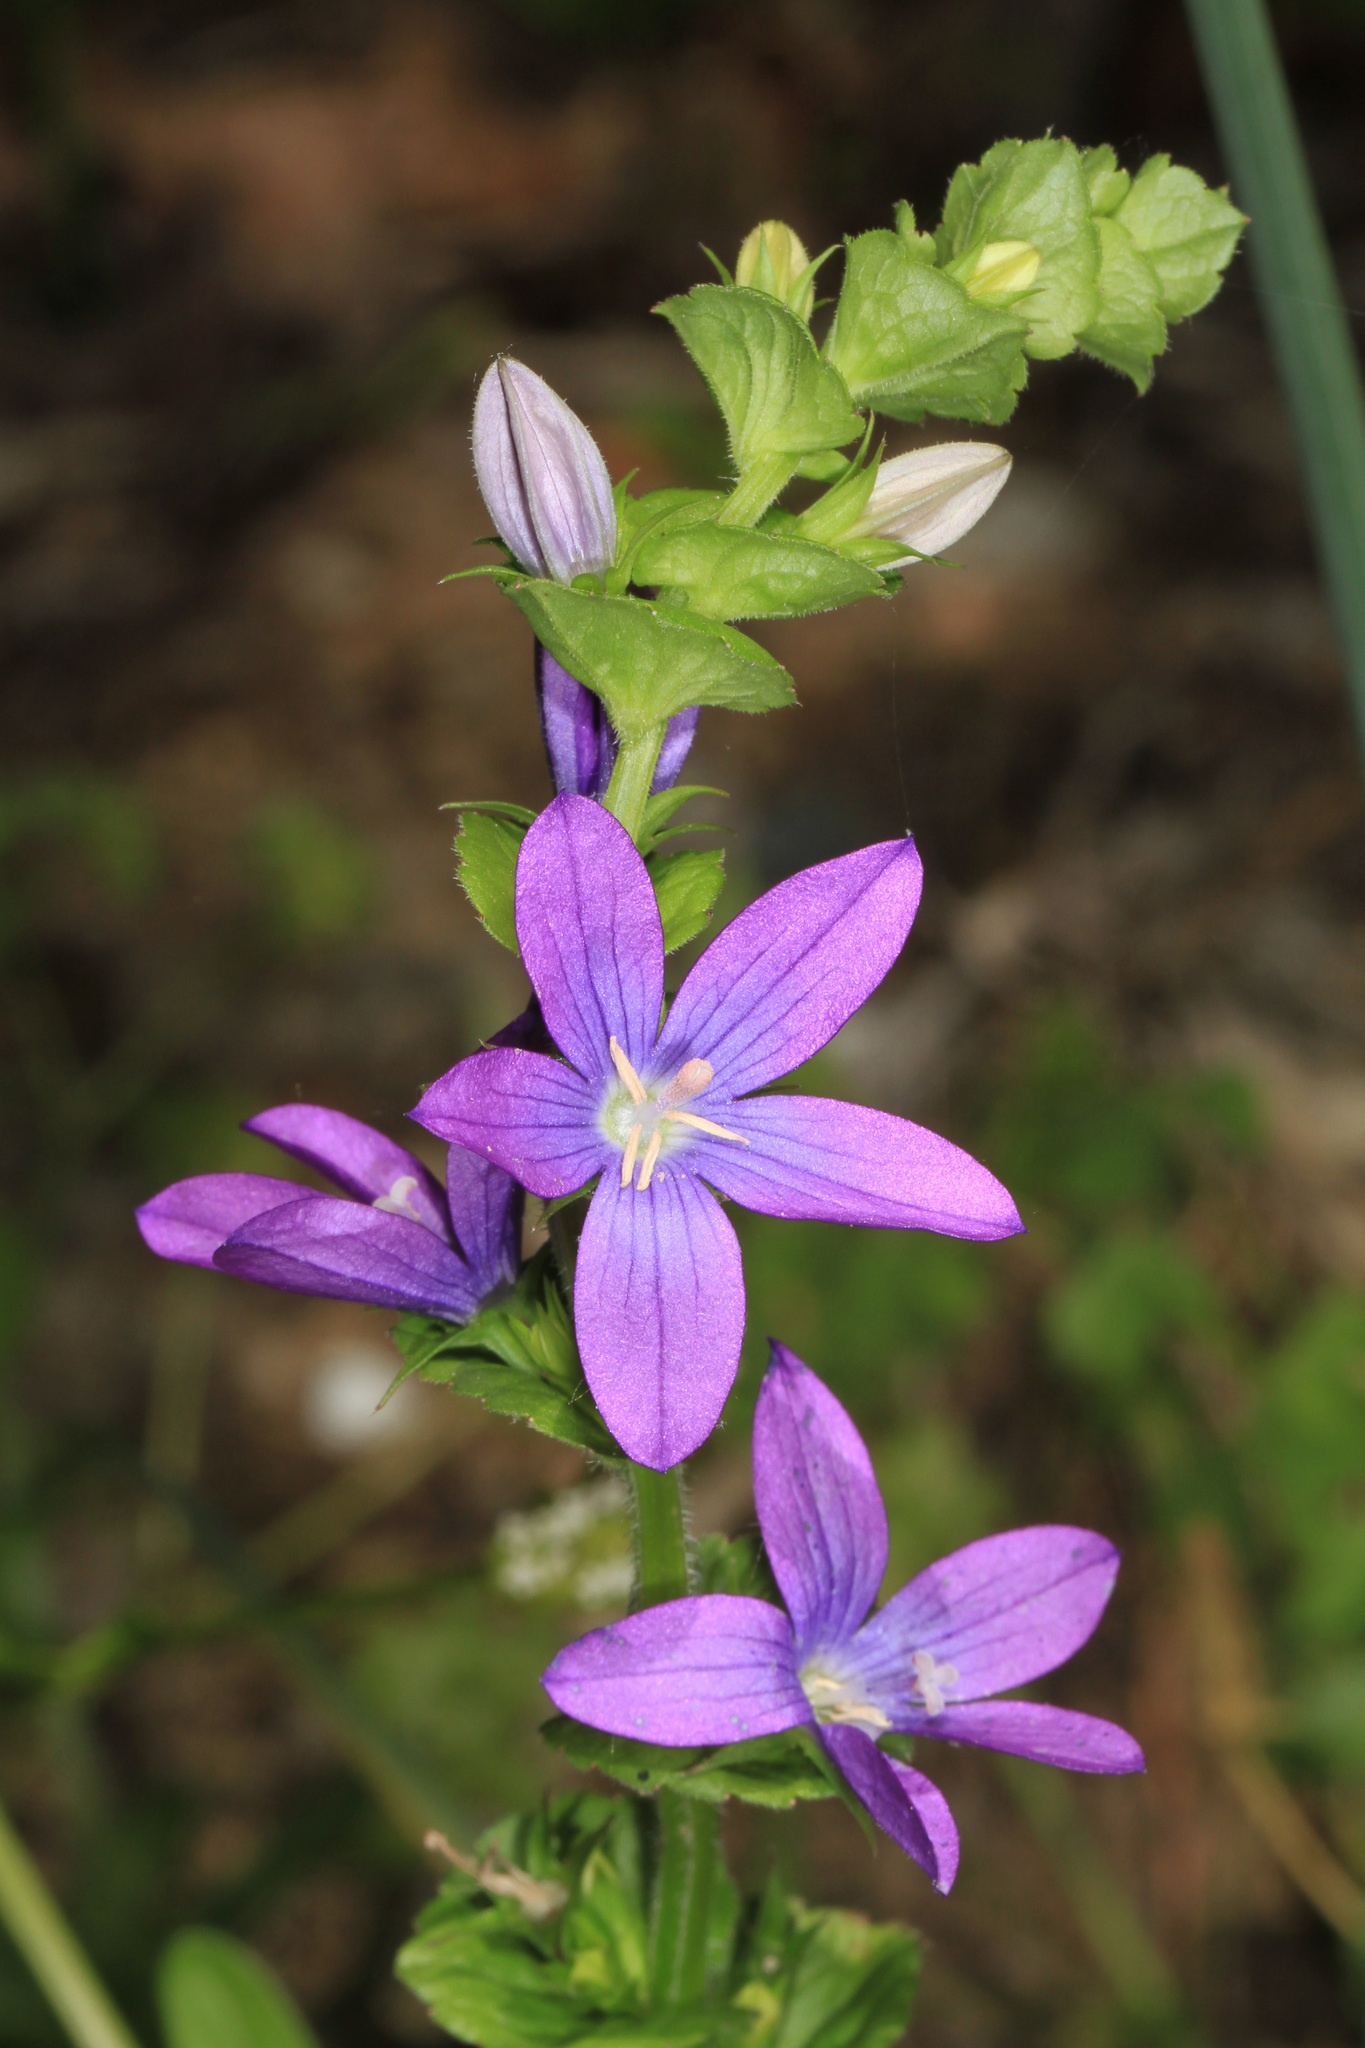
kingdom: Plantae
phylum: Tracheophyta
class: Magnoliopsida
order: Asterales
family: Campanulaceae
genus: Triodanis
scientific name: Triodanis perfoliata
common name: Clasping venus' looking-glass
